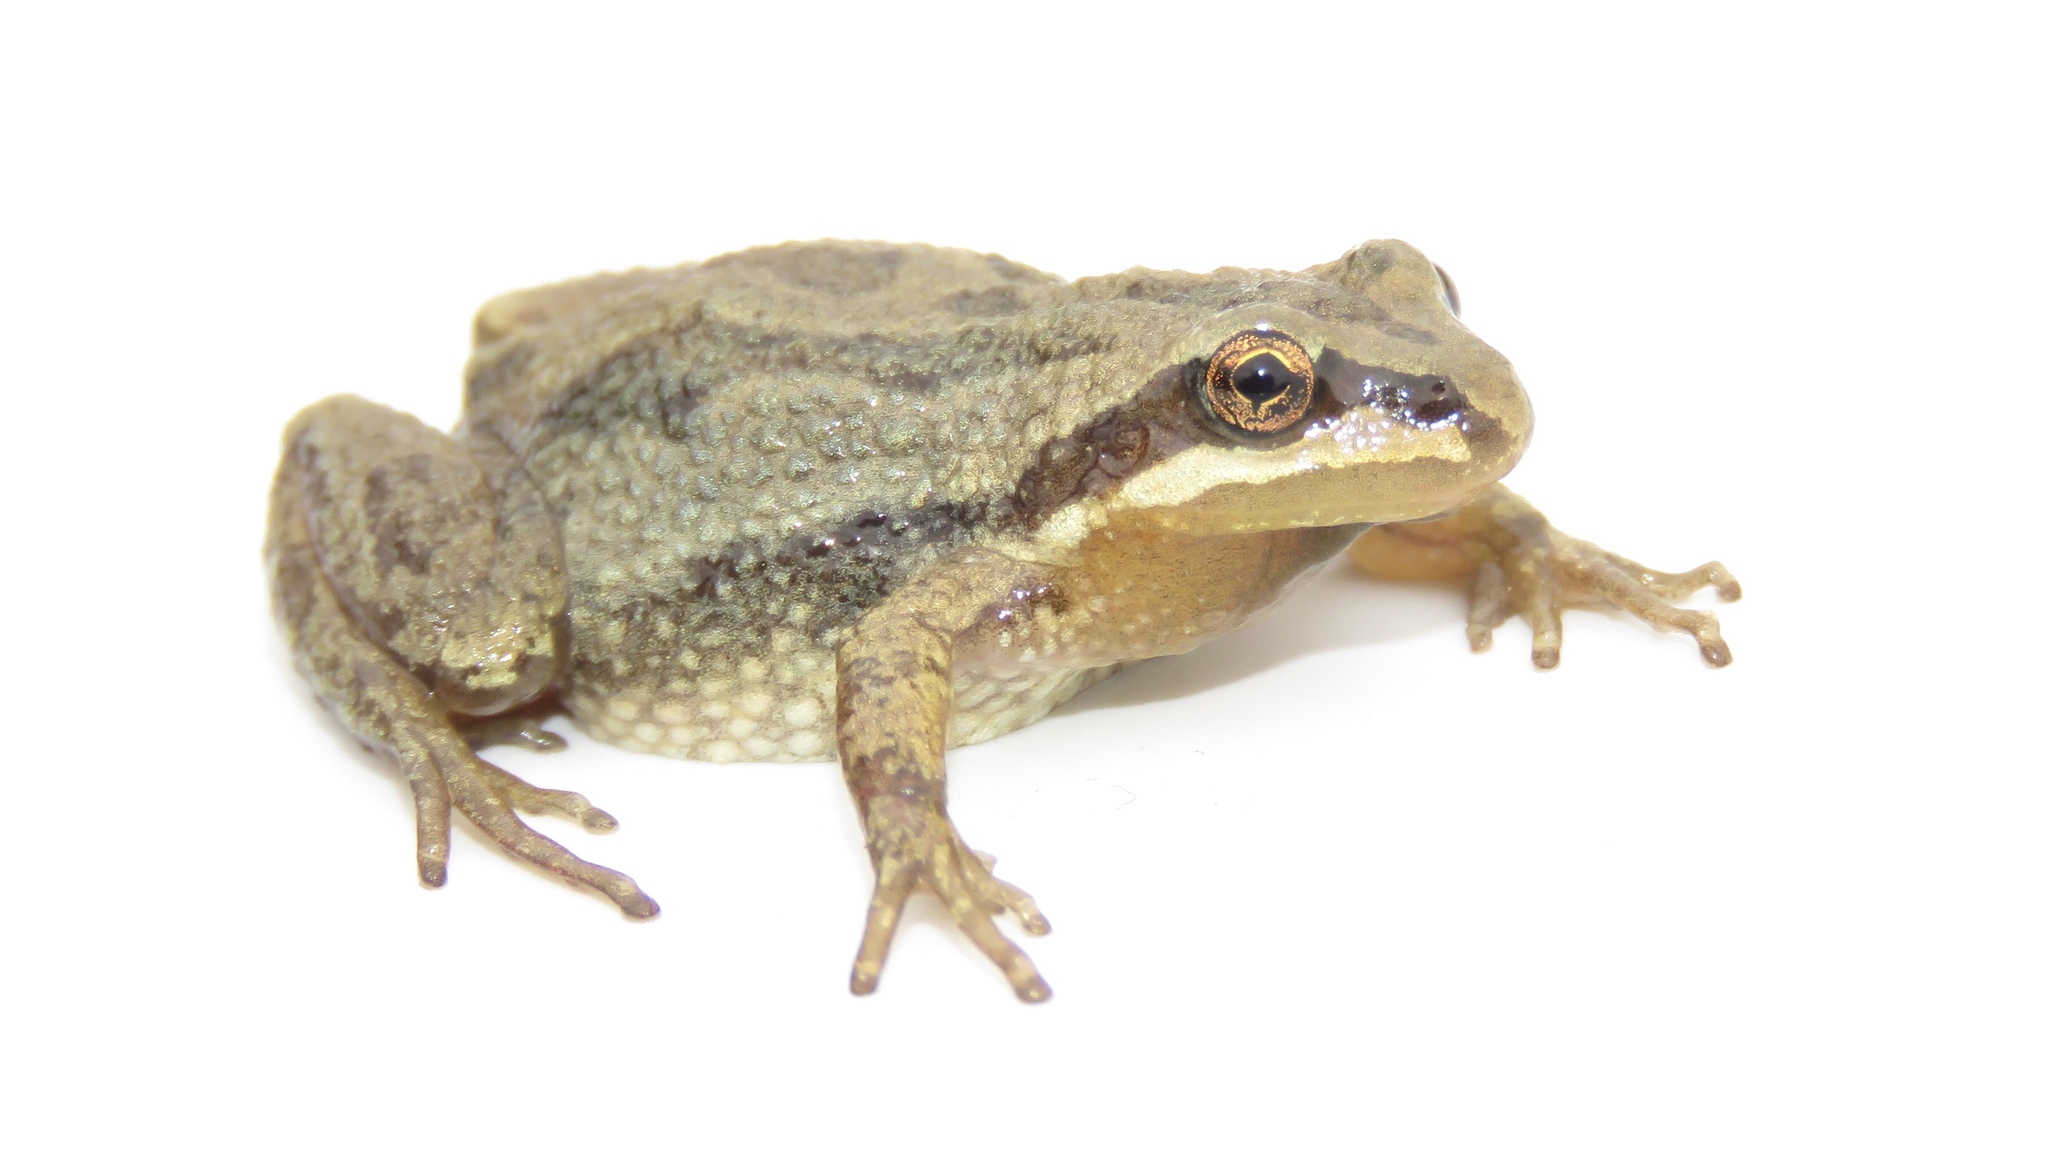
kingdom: Animalia
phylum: Chordata
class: Amphibia
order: Anura
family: Hylidae
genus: Pseudacris
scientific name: Pseudacris maculata
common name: Boreal chorus frog
